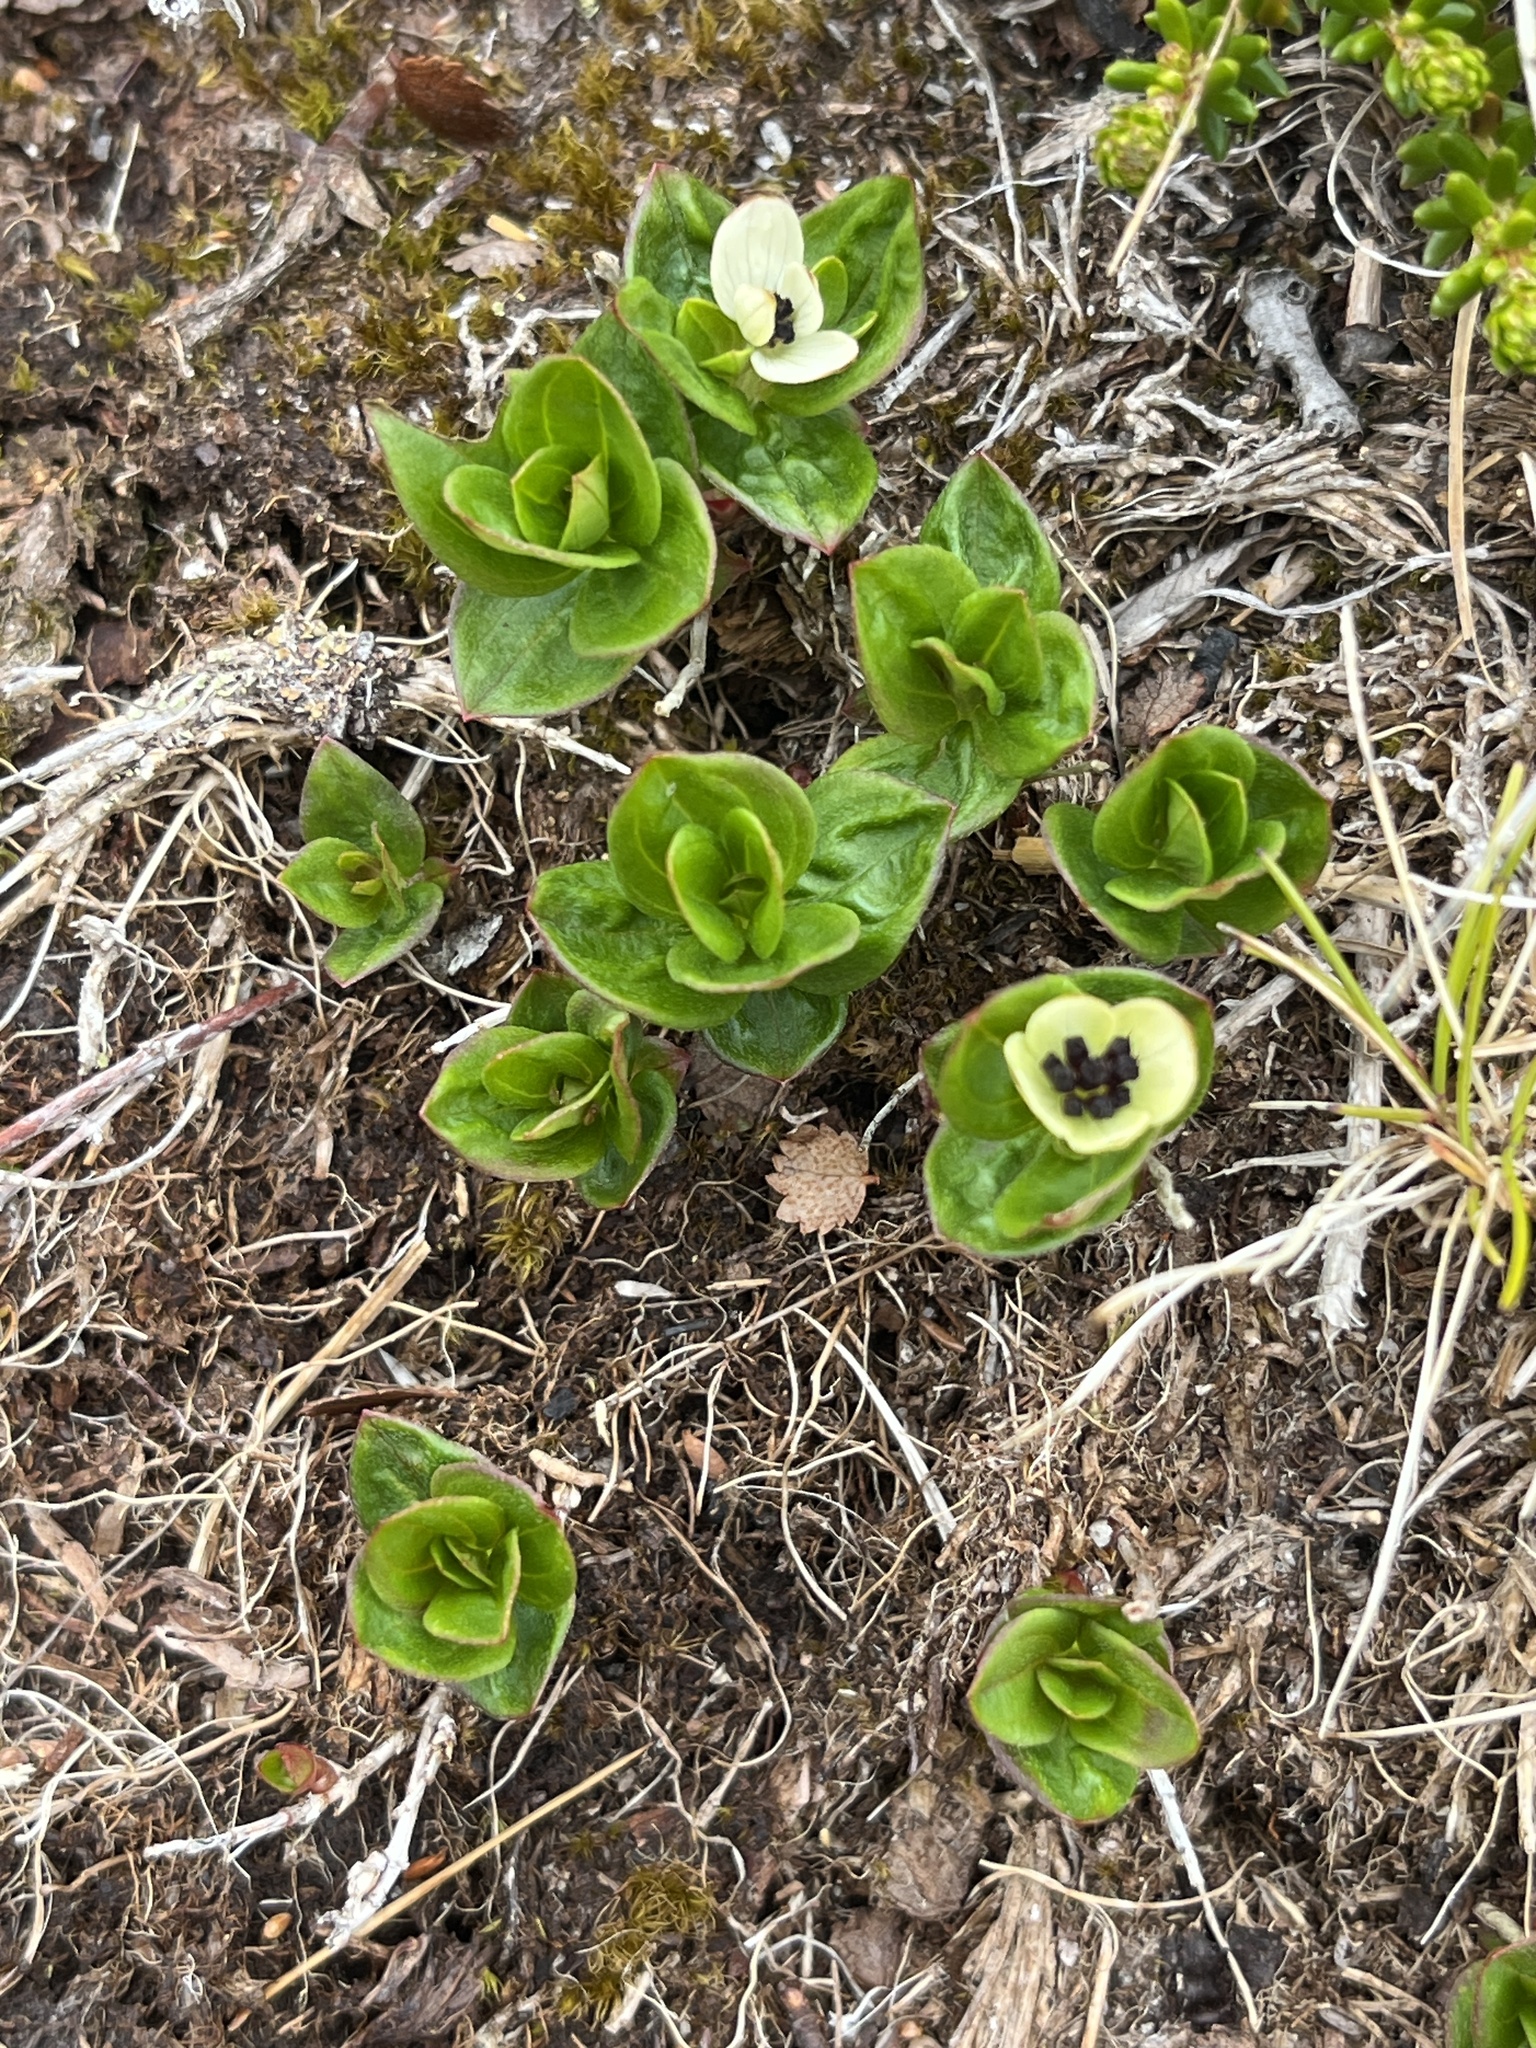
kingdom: Plantae
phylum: Tracheophyta
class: Magnoliopsida
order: Cornales
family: Cornaceae
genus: Cornus
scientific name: Cornus suecica
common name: Dwarf cornel
